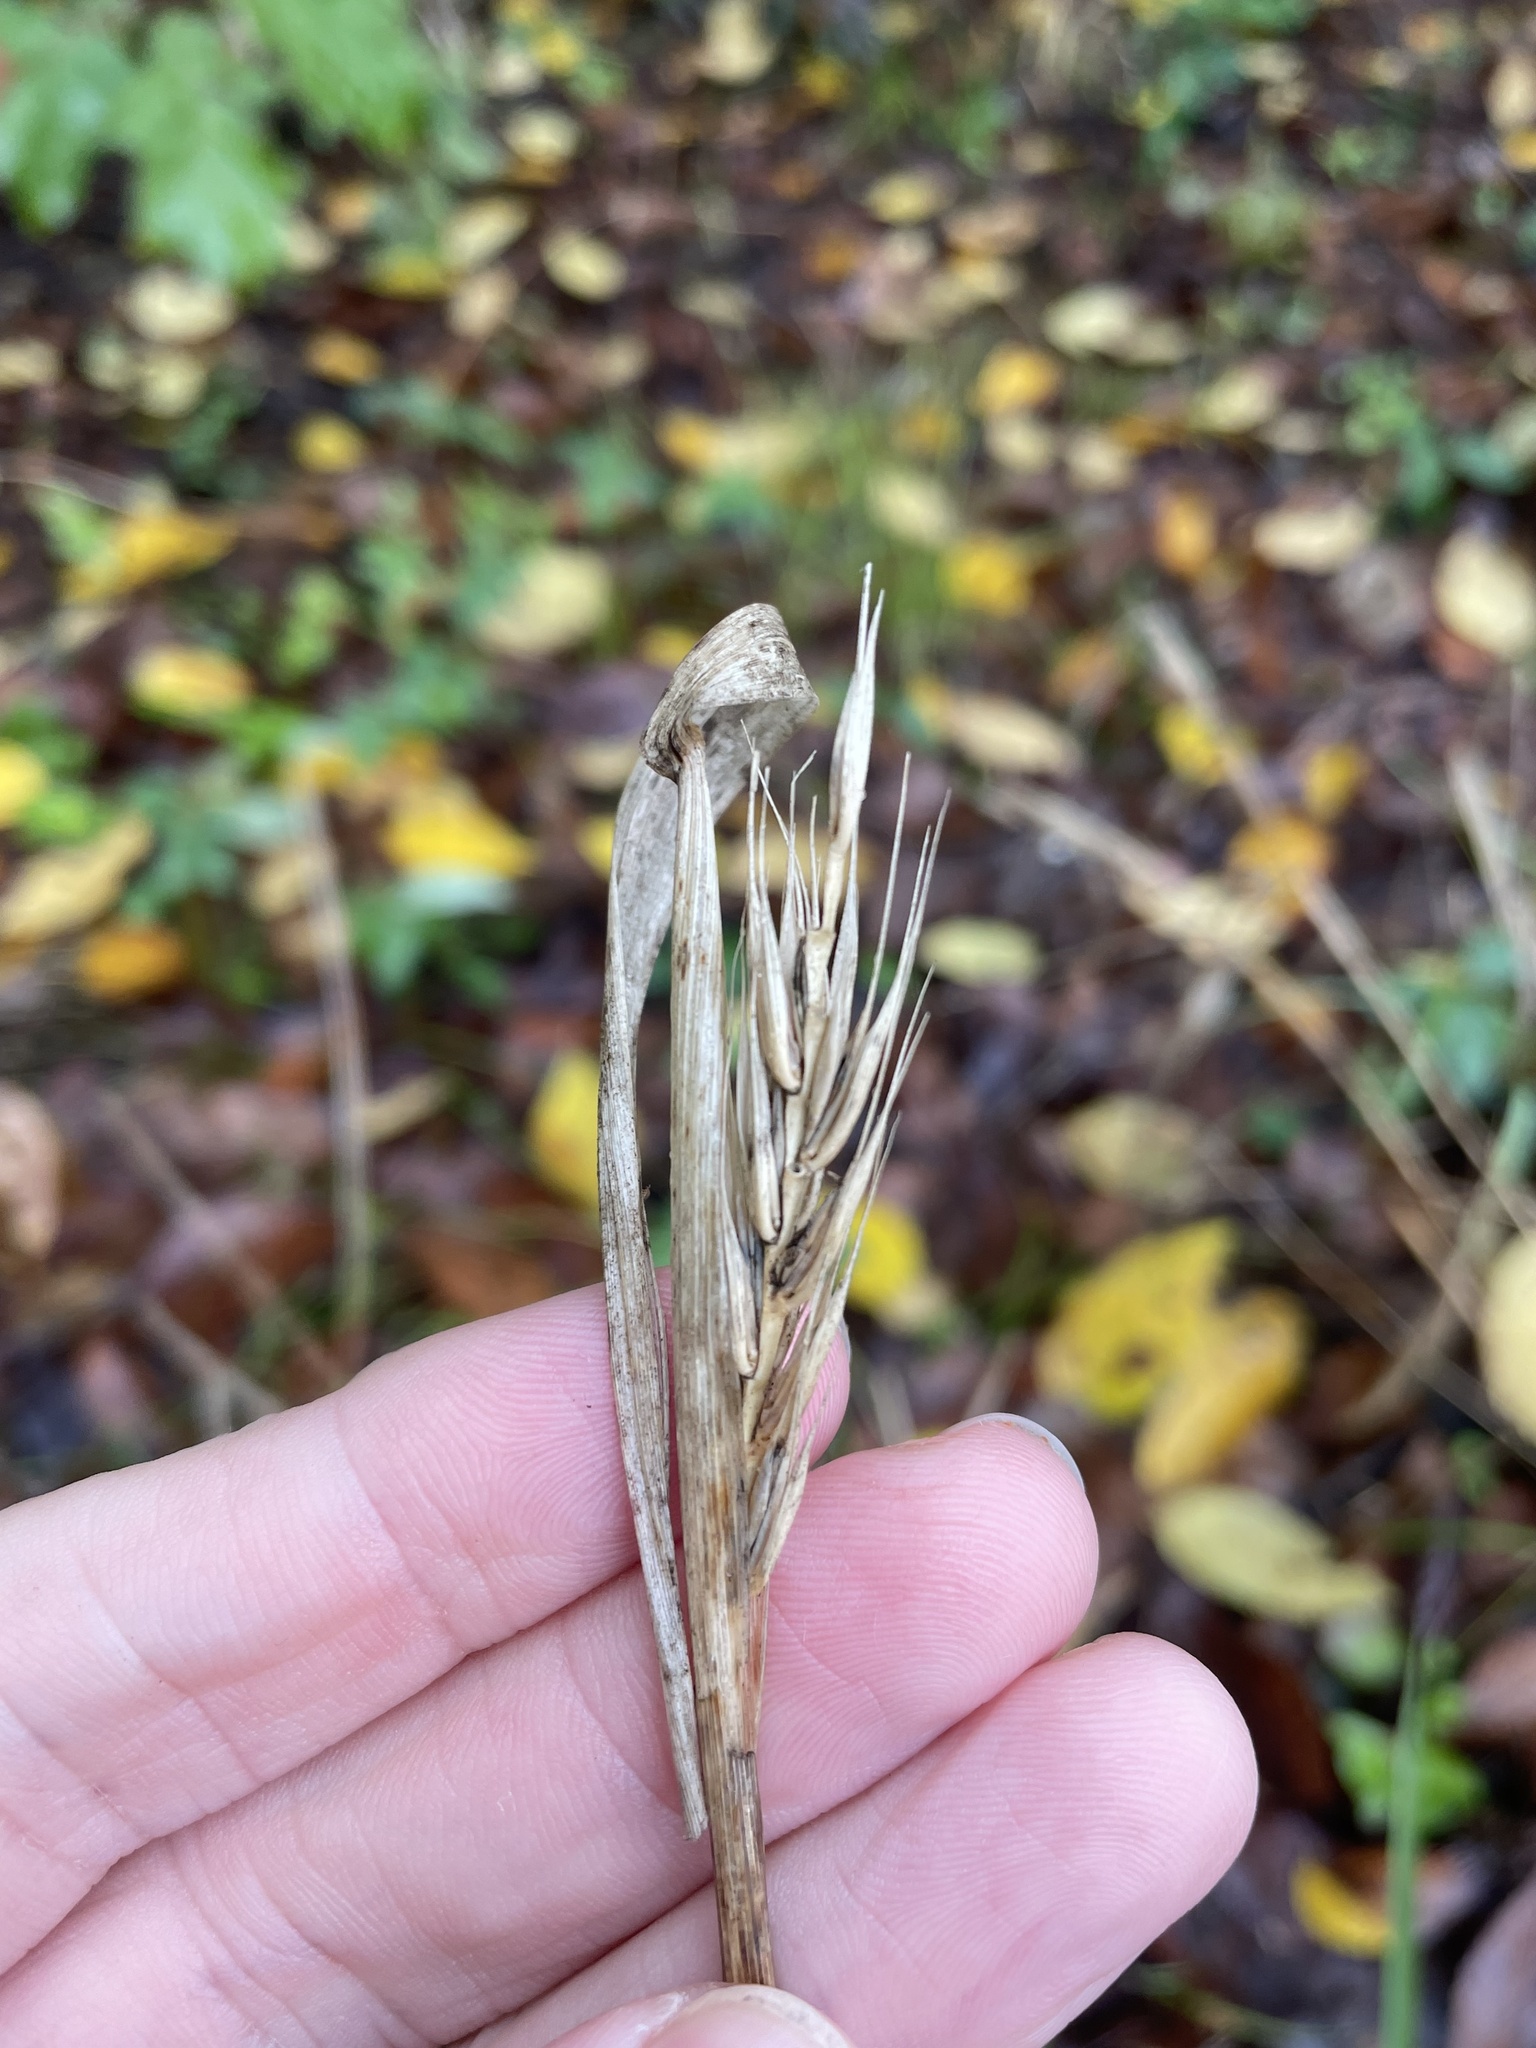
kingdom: Plantae
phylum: Tracheophyta
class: Liliopsida
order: Poales
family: Poaceae
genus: Elymus
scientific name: Elymus virginicus
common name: Common eastern wildrye
